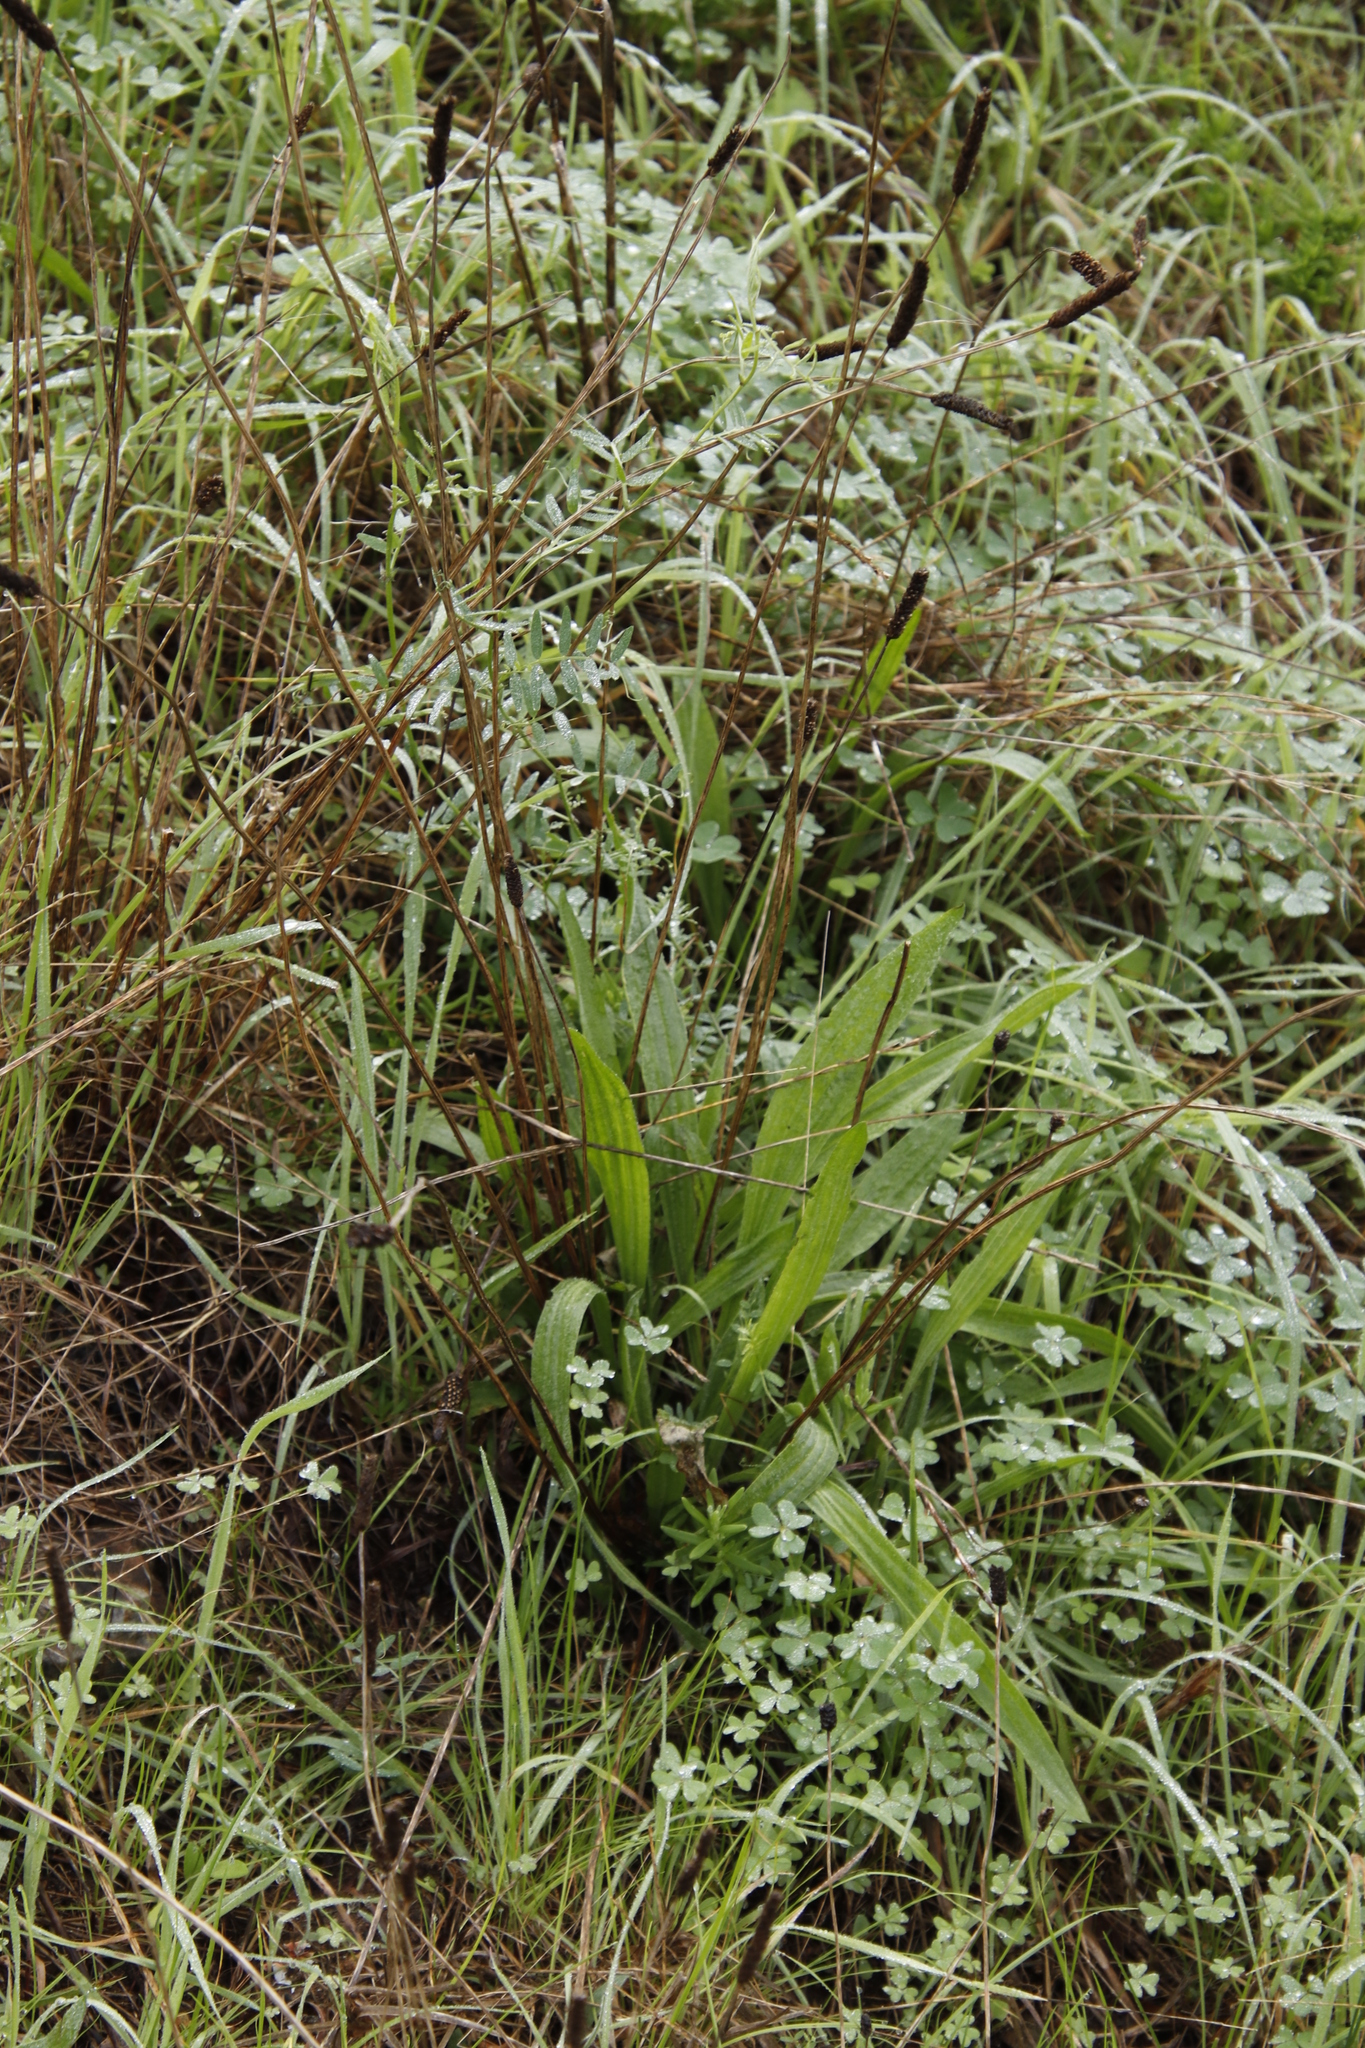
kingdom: Plantae
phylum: Tracheophyta
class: Magnoliopsida
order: Lamiales
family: Plantaginaceae
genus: Plantago
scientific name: Plantago lanceolata
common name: Ribwort plantain
